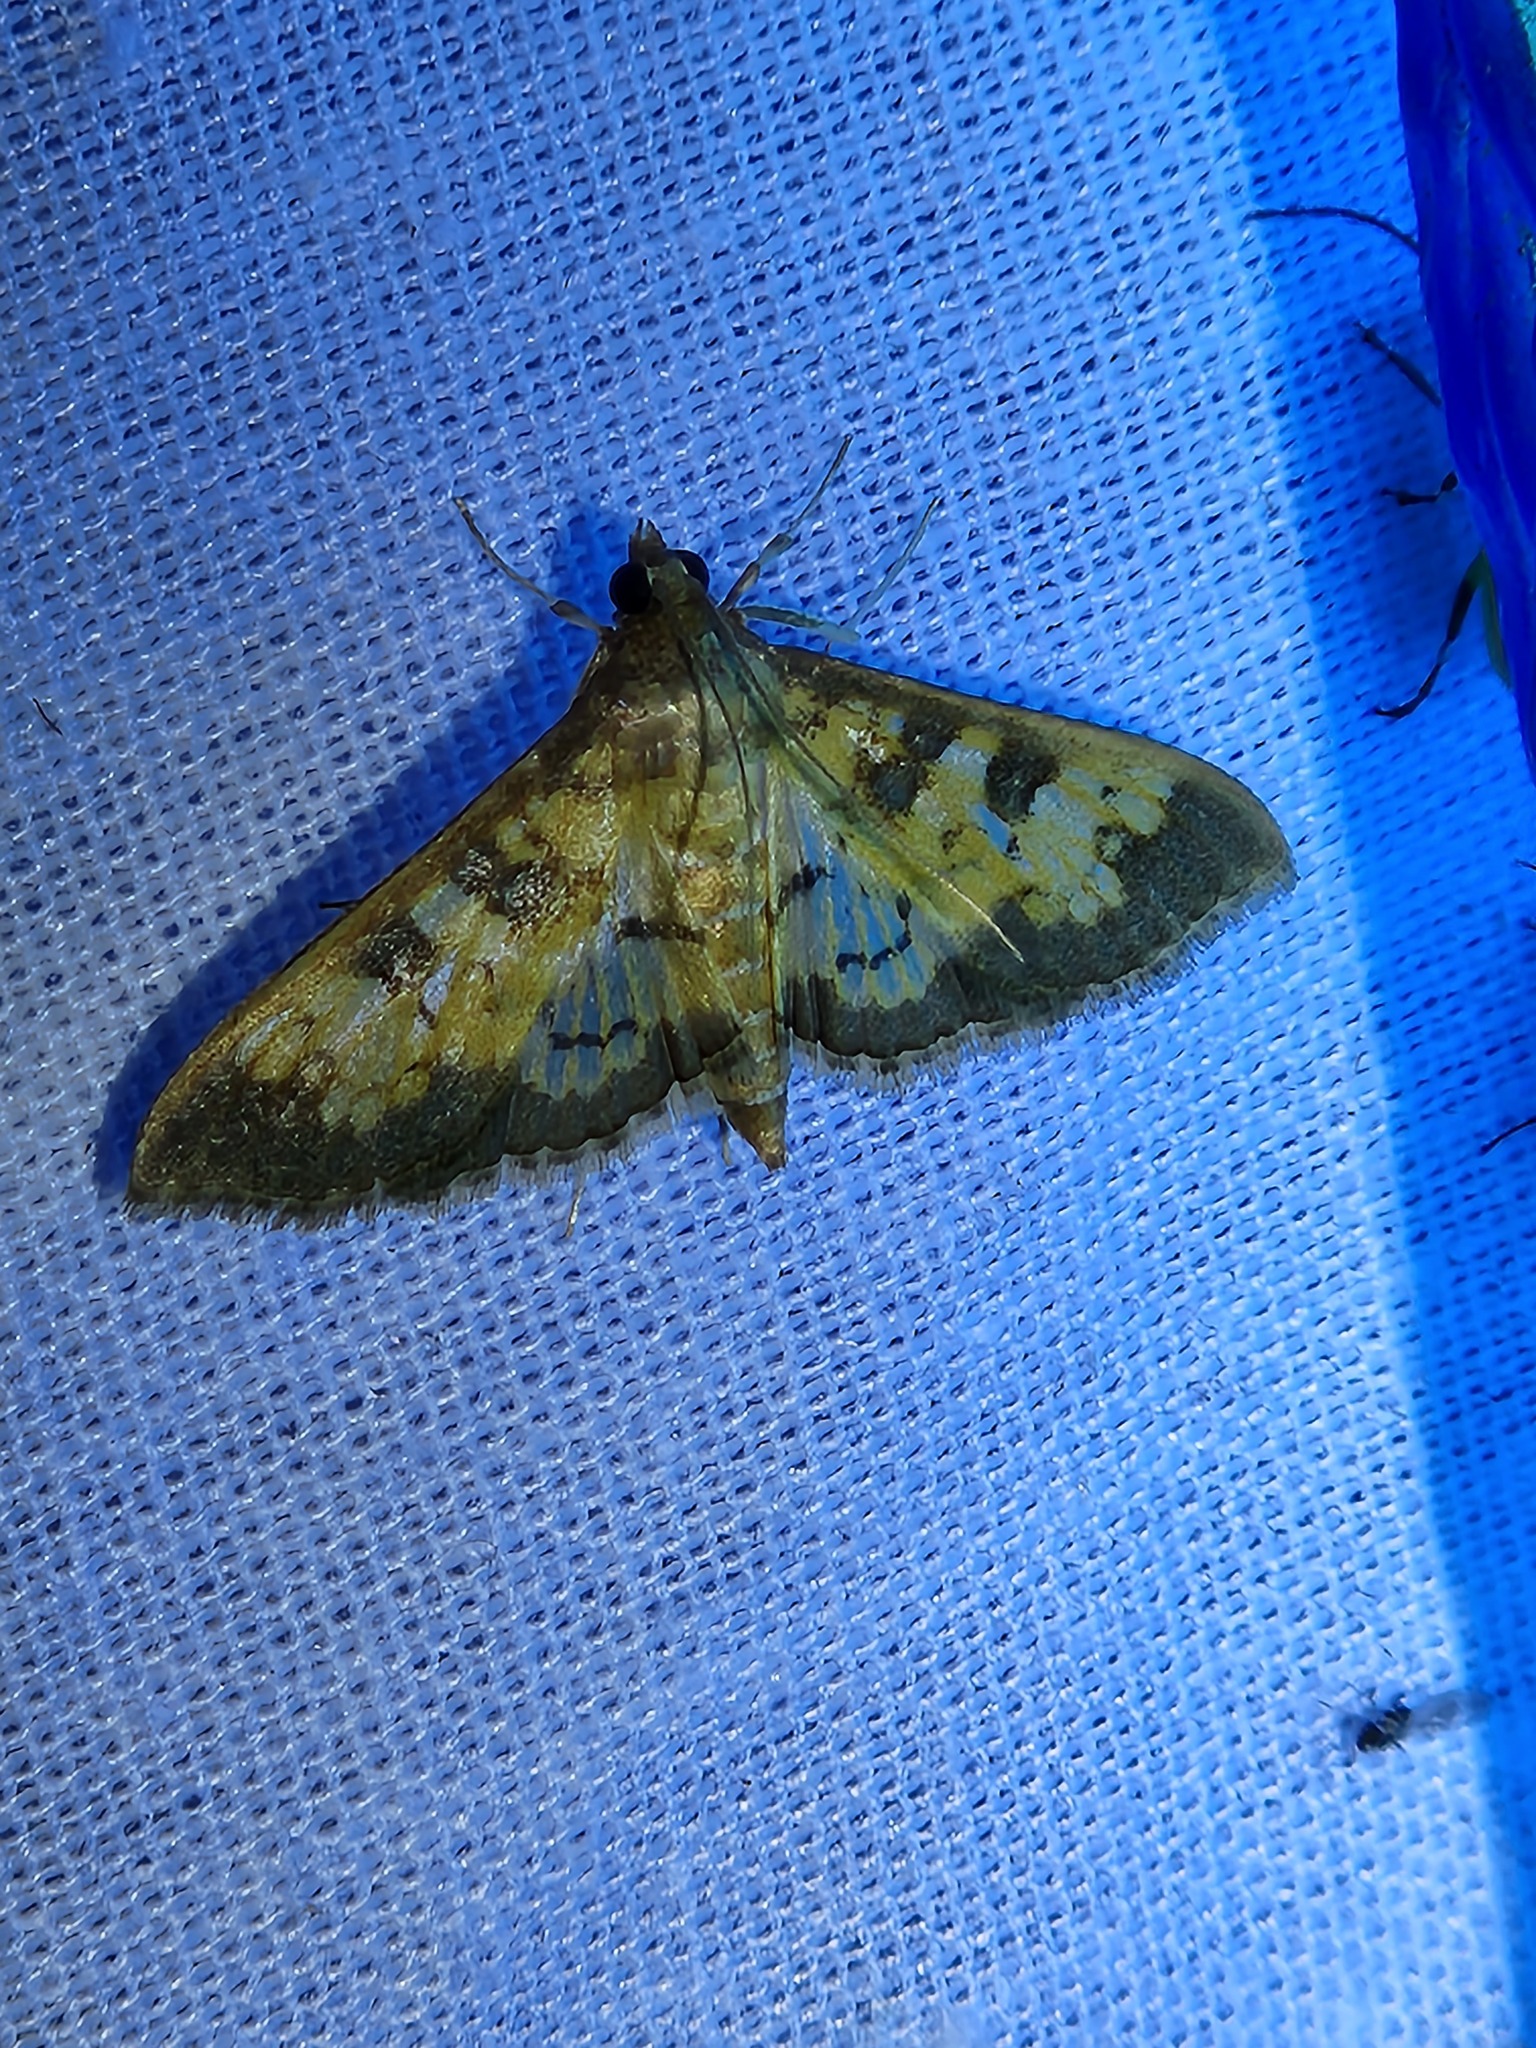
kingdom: Animalia
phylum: Arthropoda
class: Insecta
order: Lepidoptera
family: Crambidae
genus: Cryptographis
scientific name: Cryptographis elealis
